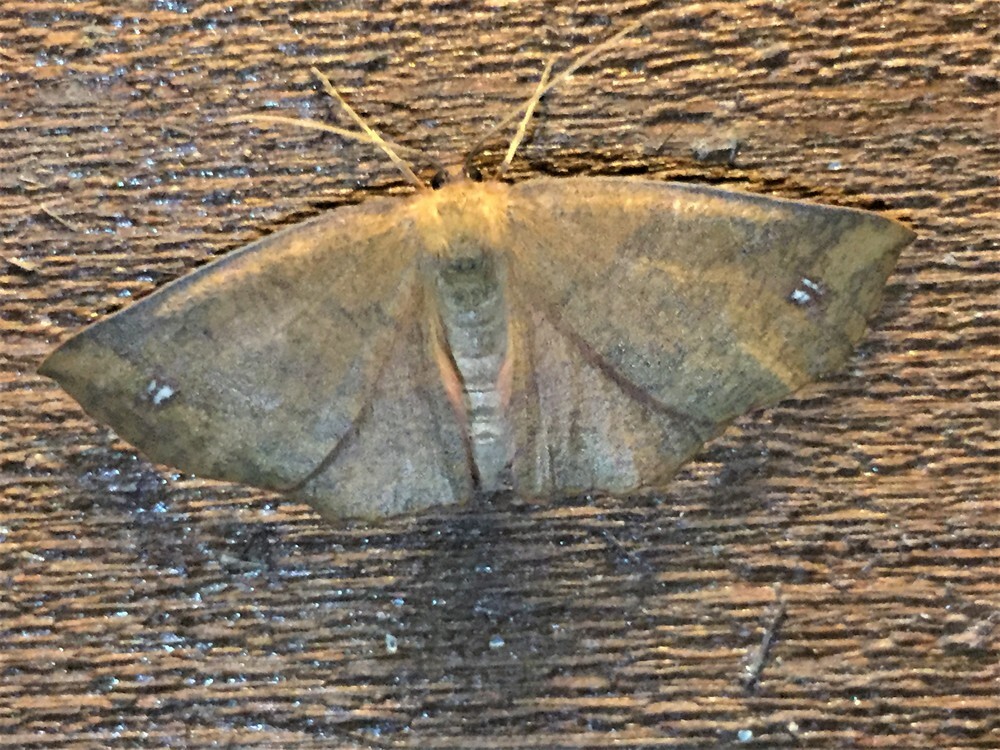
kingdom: Animalia
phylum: Arthropoda
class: Insecta
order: Lepidoptera
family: Geometridae
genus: Xyridacma
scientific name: Xyridacma ustaria
